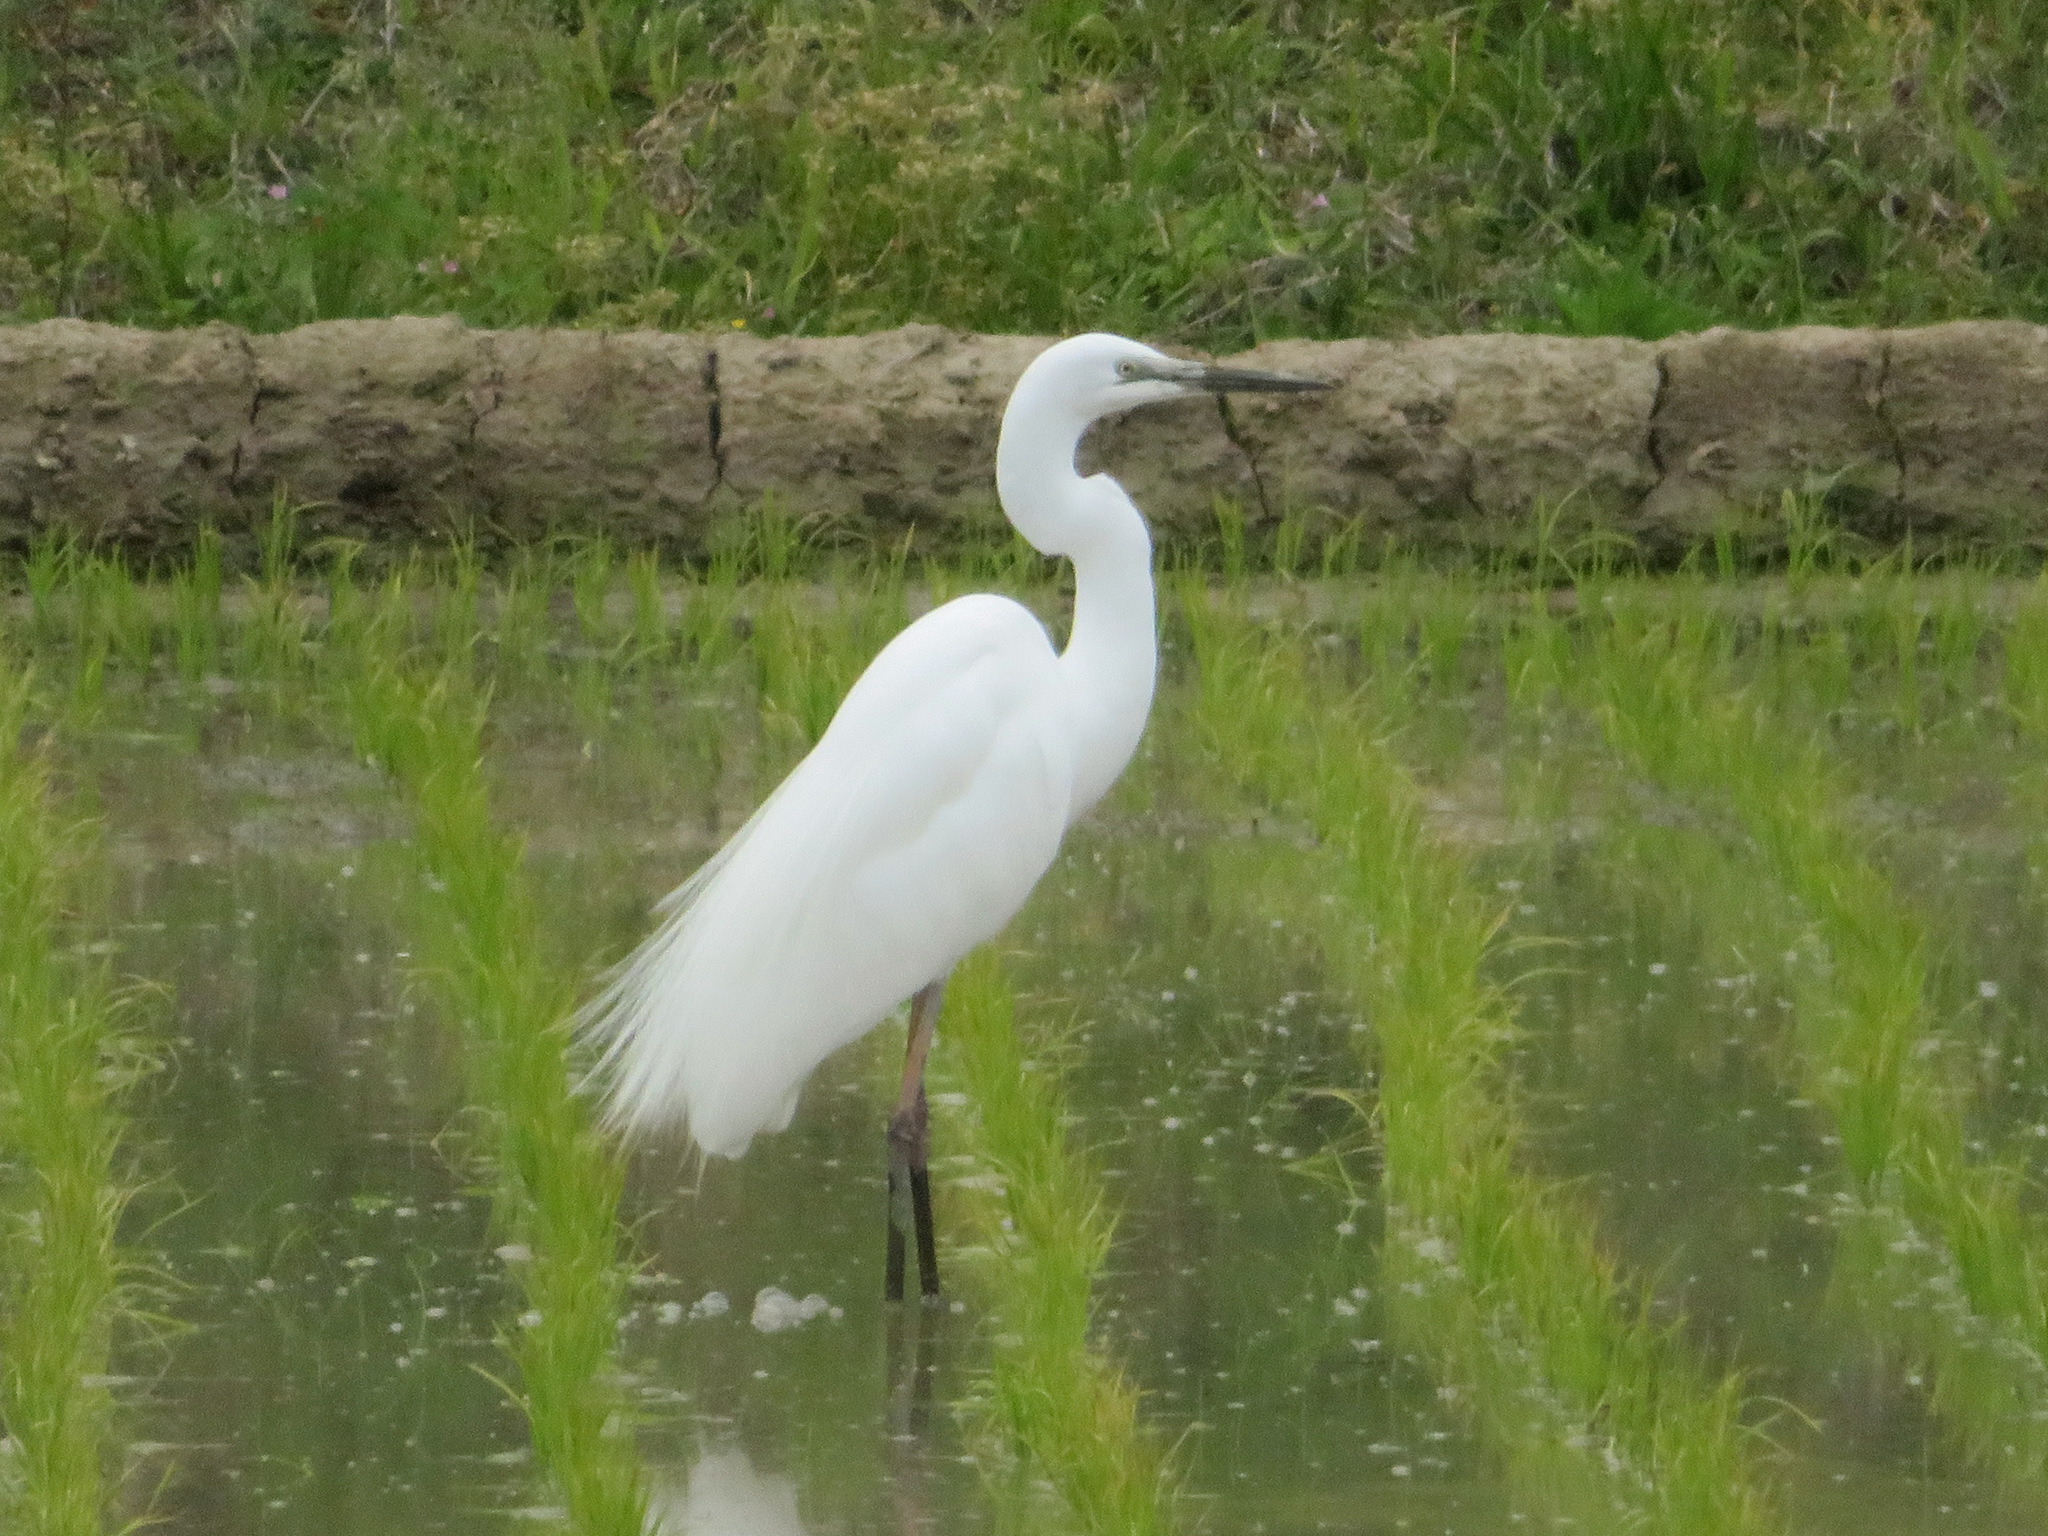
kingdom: Animalia
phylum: Chordata
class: Aves
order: Pelecaniformes
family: Ardeidae
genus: Ardea
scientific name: Ardea alba
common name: Great egret
